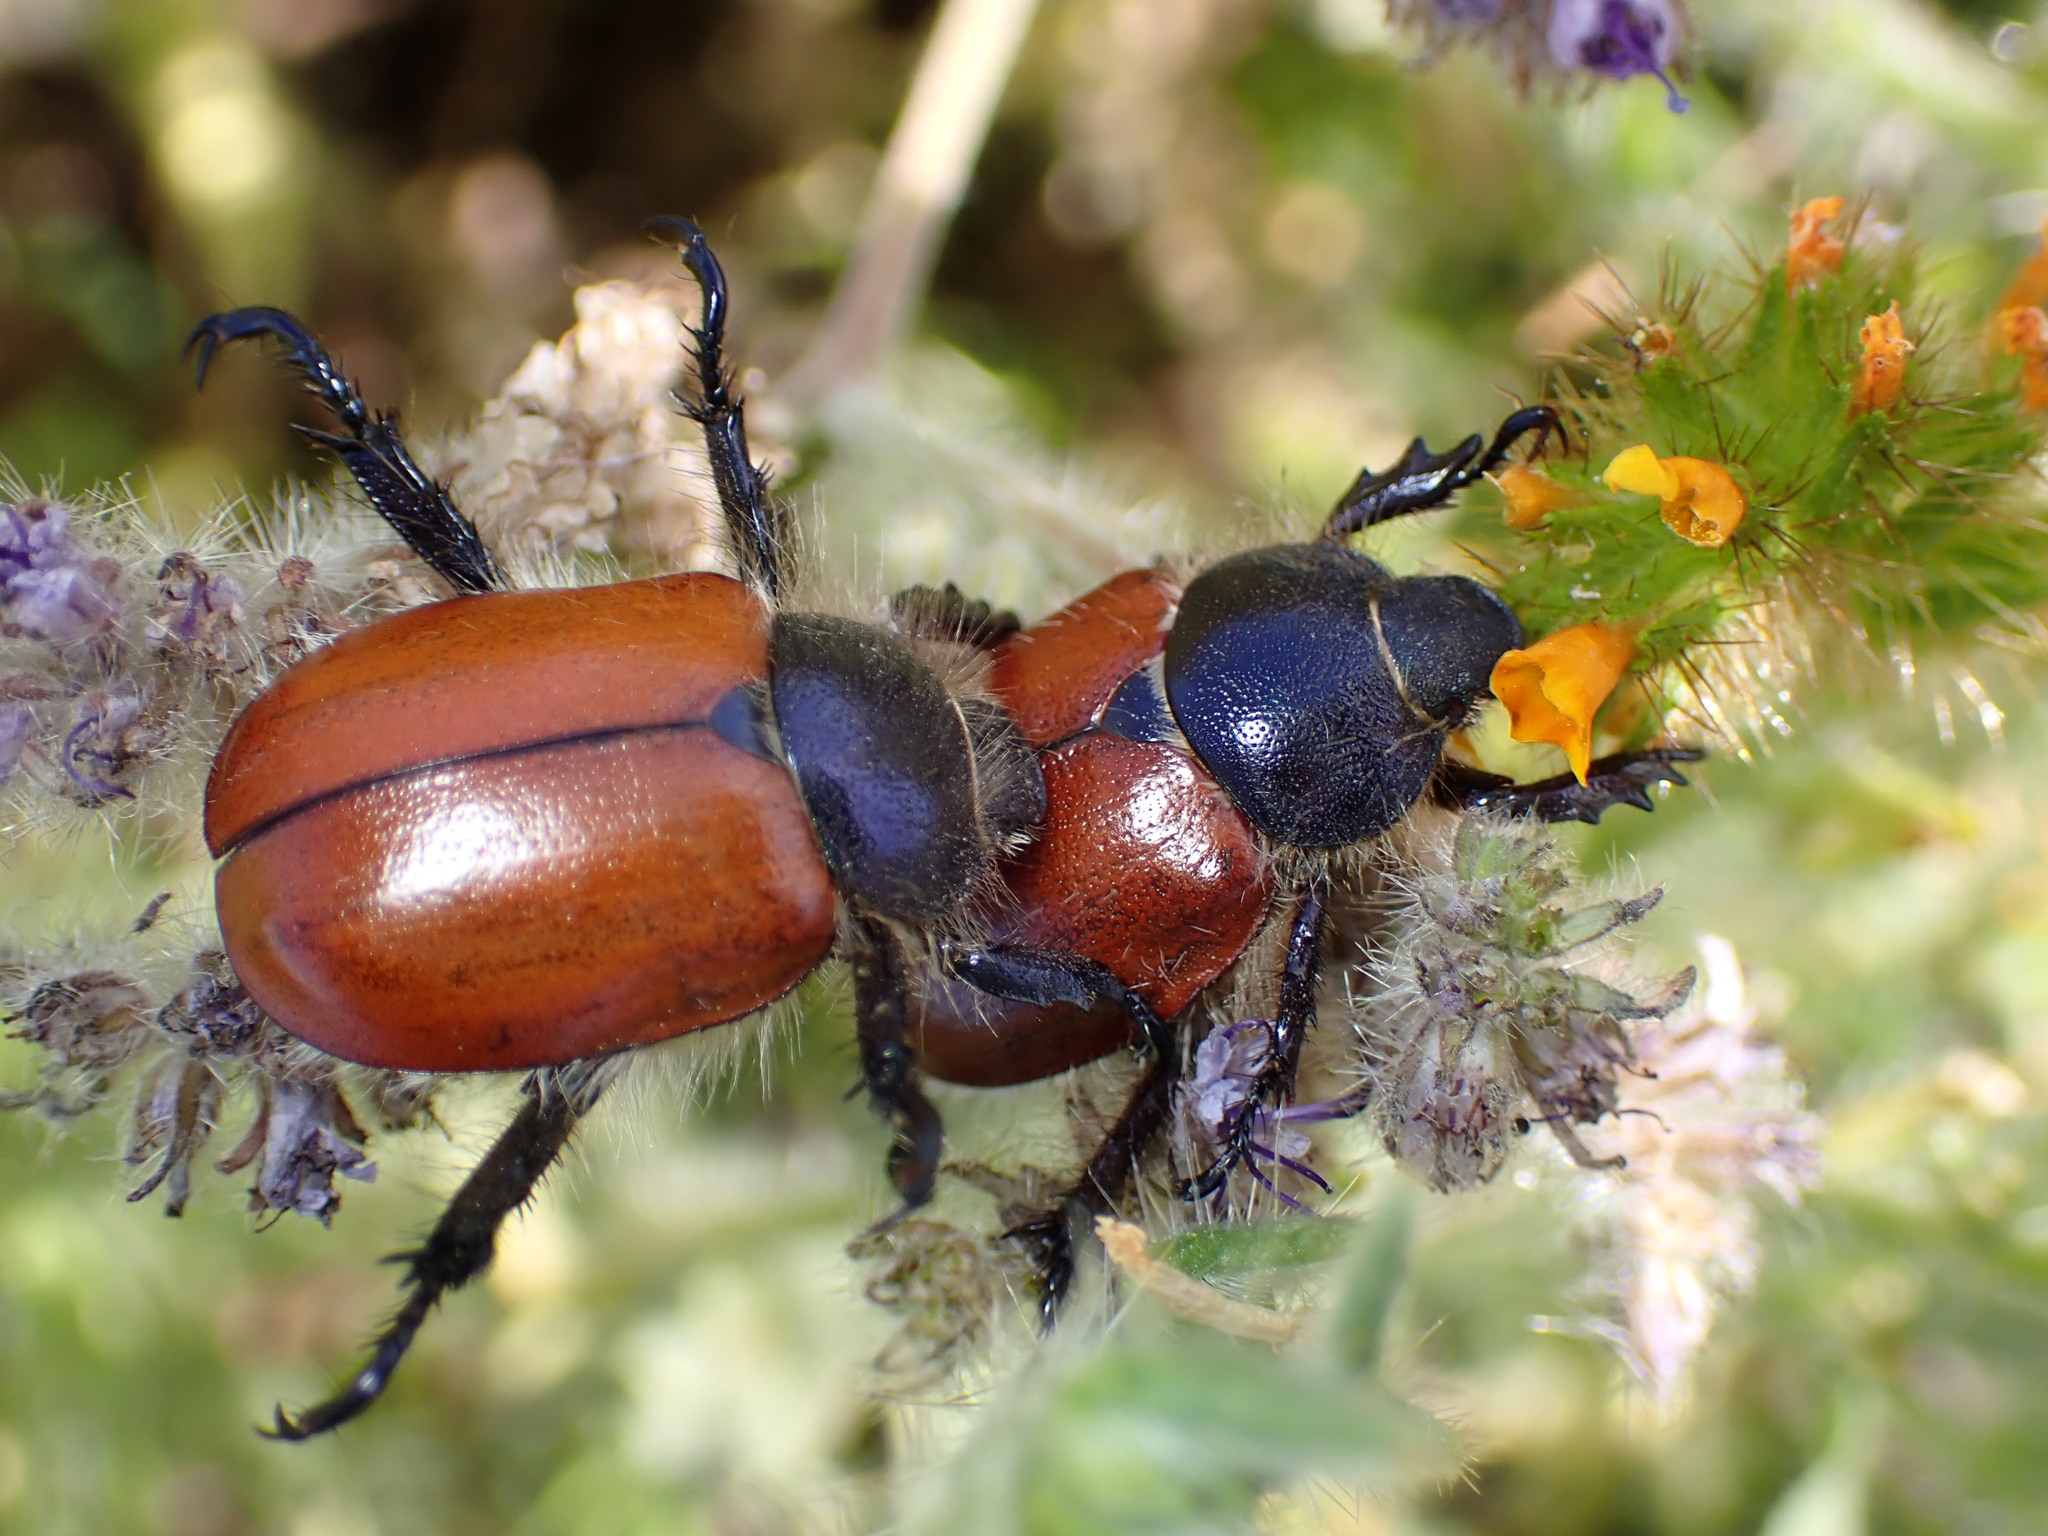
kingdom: Animalia
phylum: Arthropoda
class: Insecta
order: Coleoptera
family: Scarabaeidae
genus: Paracotalpa
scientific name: Paracotalpa ursina
